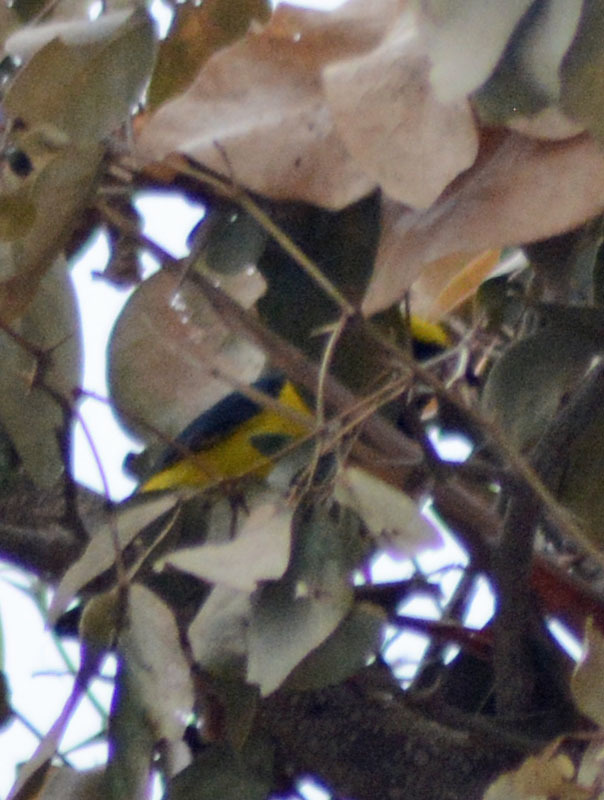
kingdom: Animalia
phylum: Chordata
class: Aves
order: Passeriformes
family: Fringillidae
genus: Euphonia
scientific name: Euphonia affinis
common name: Scrub euphonia
